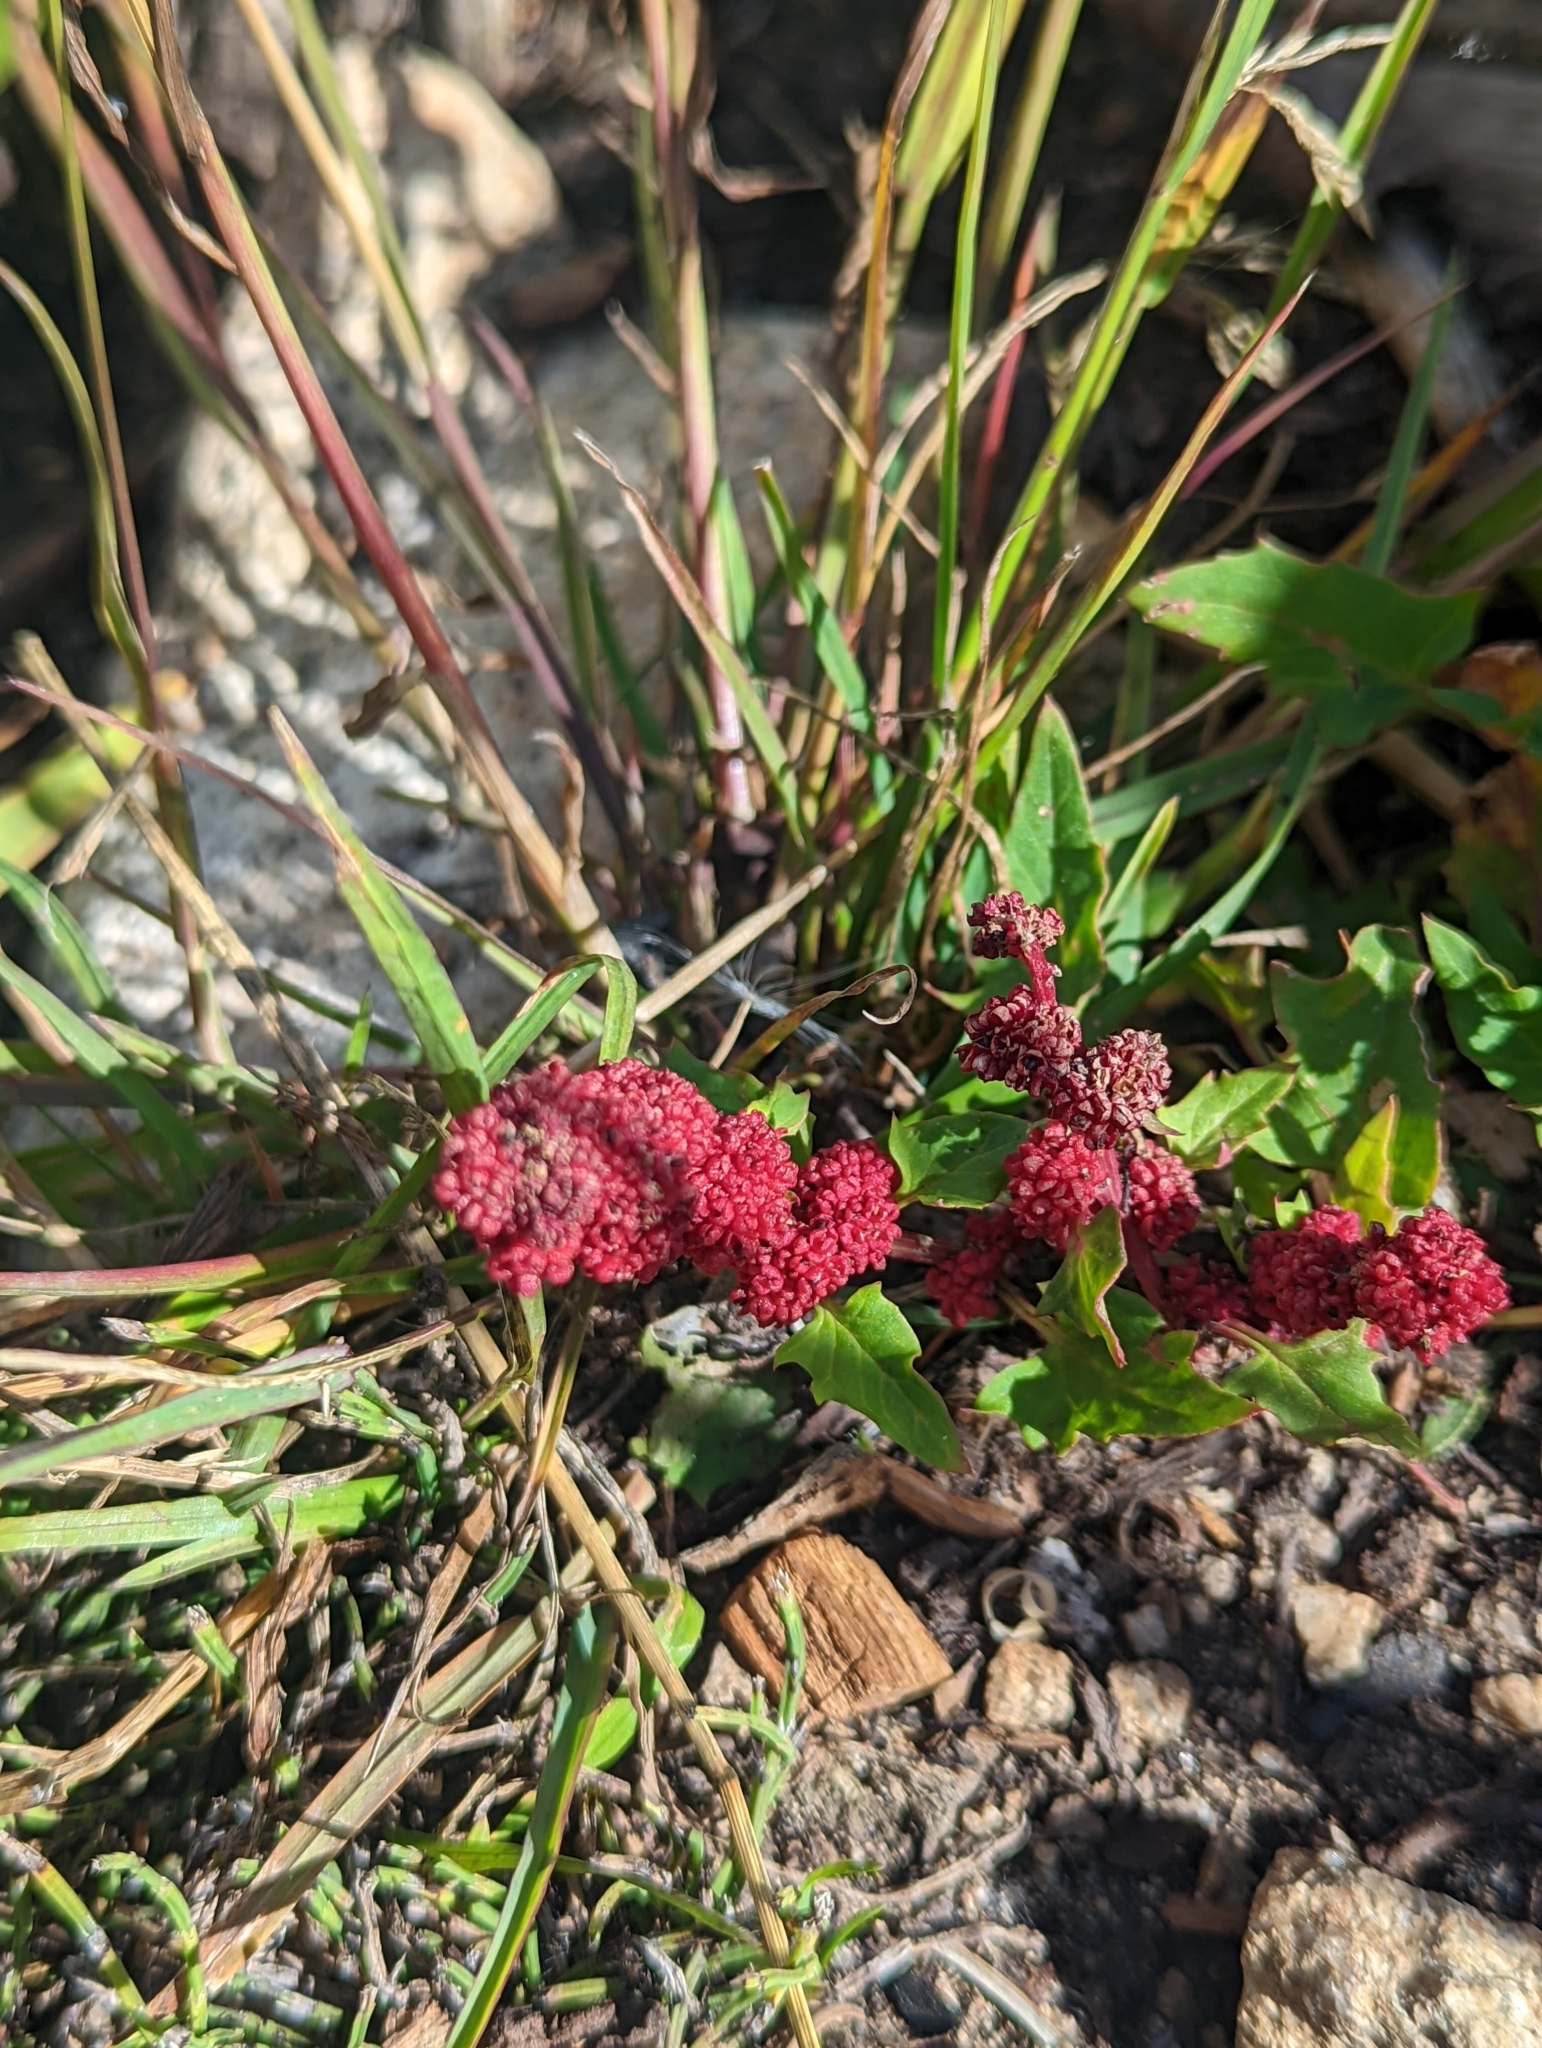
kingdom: Plantae
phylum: Tracheophyta
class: Magnoliopsida
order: Caryophyllales
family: Amaranthaceae
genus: Blitum
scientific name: Blitum capitatum
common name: Strawberry-blight
